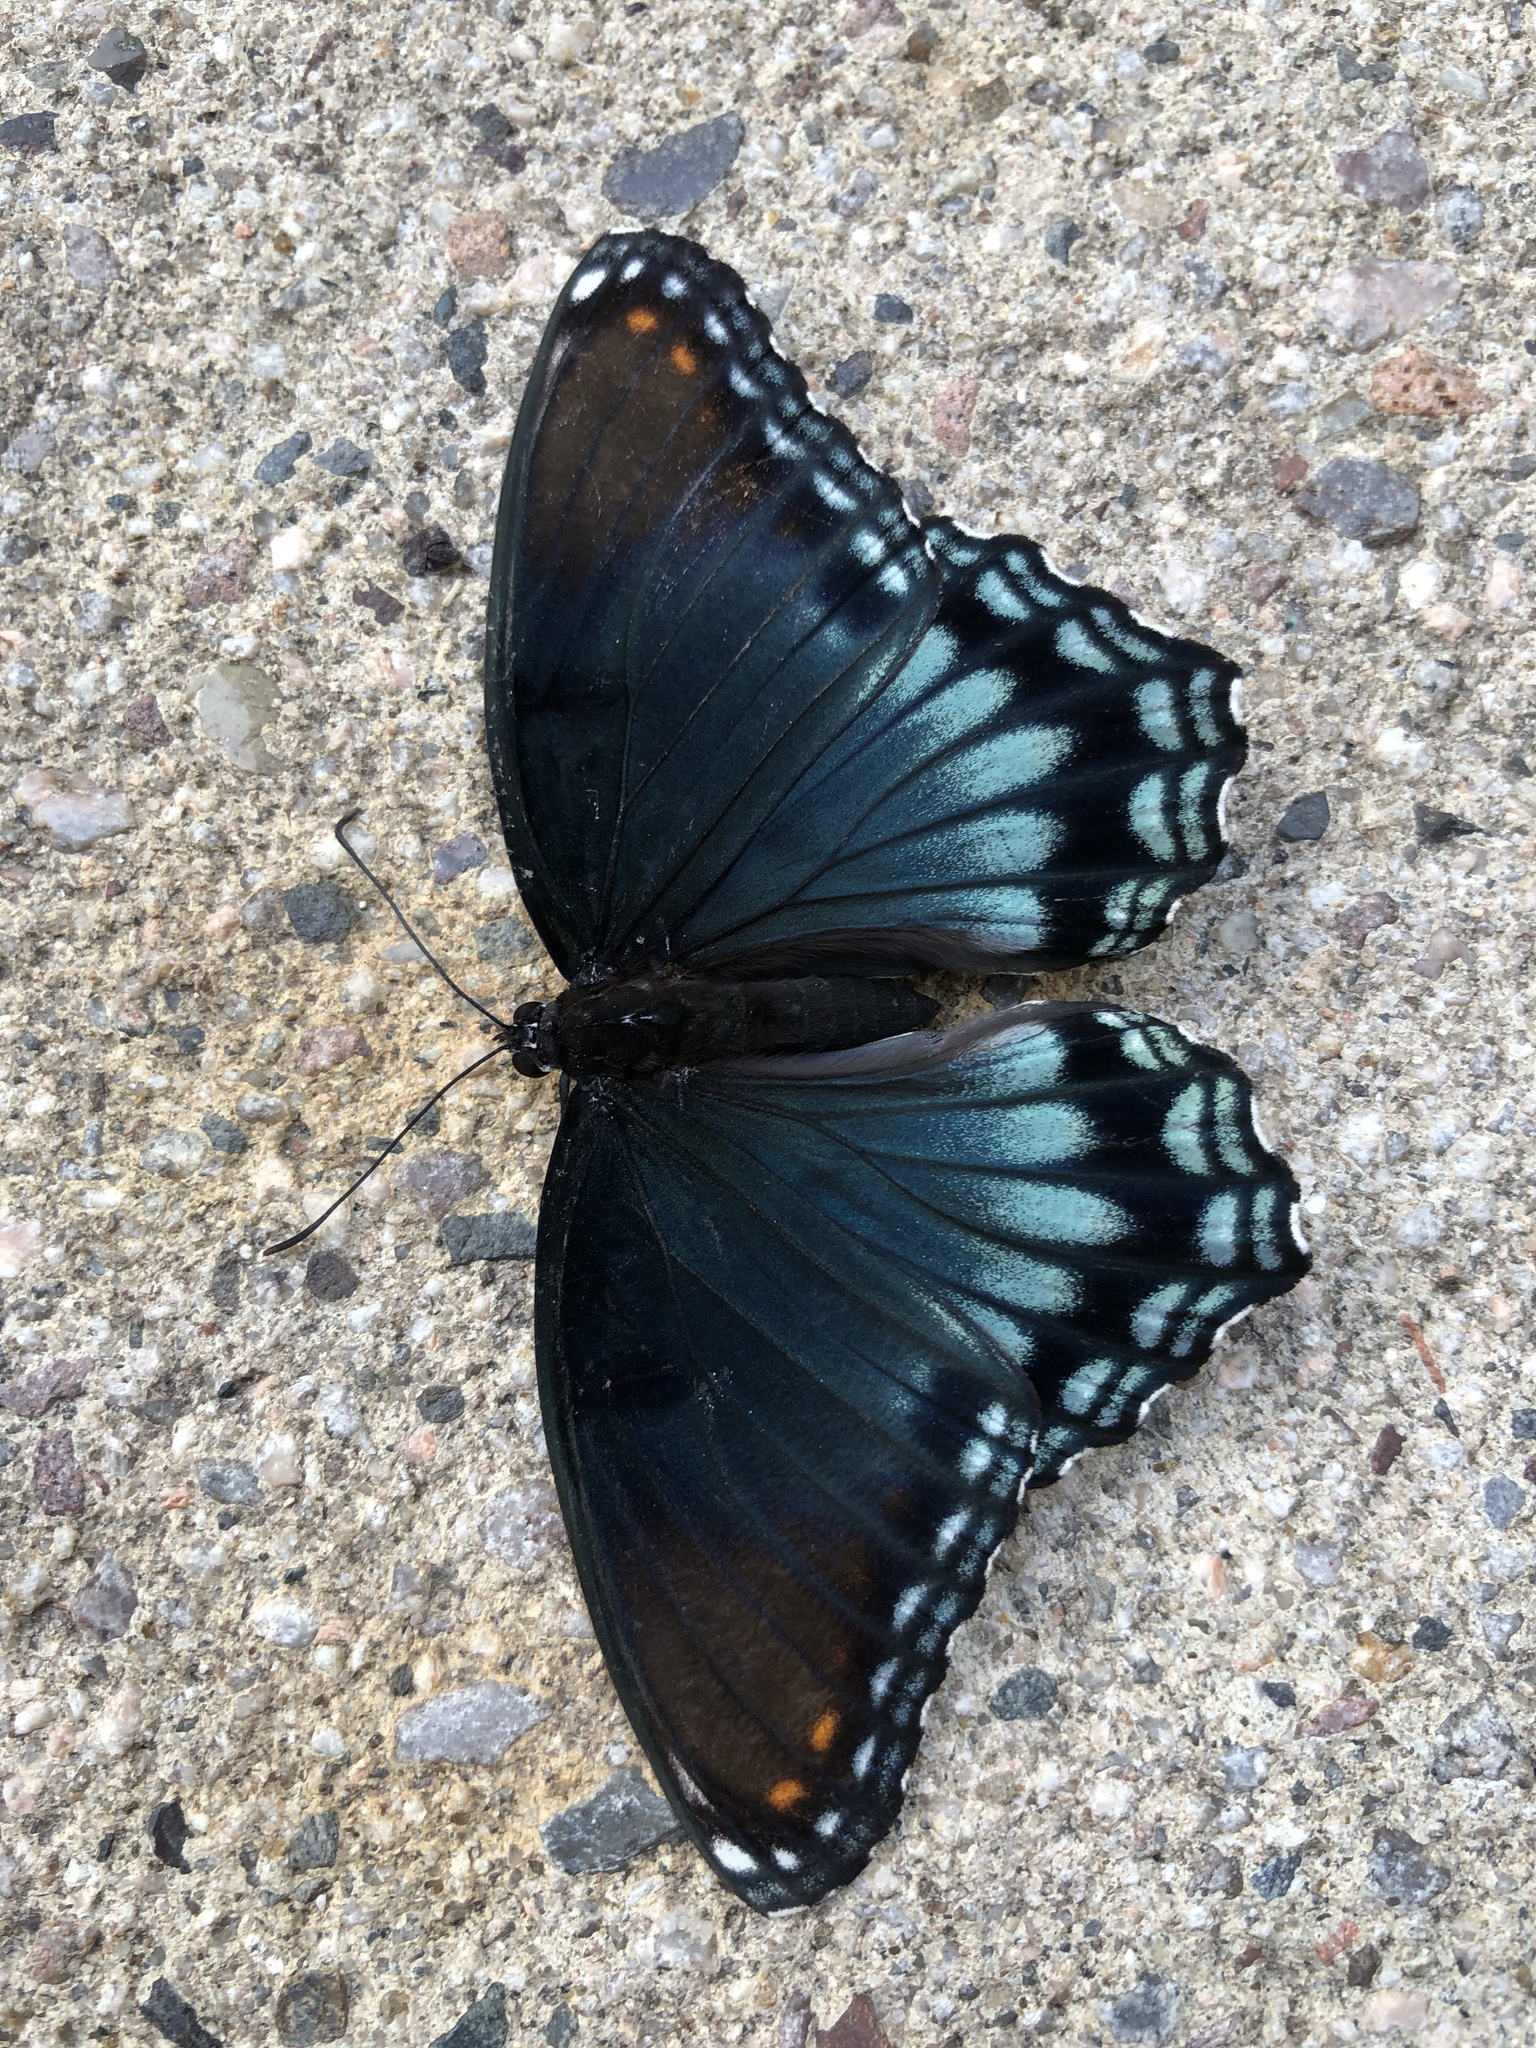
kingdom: Animalia
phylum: Arthropoda
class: Insecta
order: Lepidoptera
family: Nymphalidae
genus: Limenitis
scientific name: Limenitis astyanax
